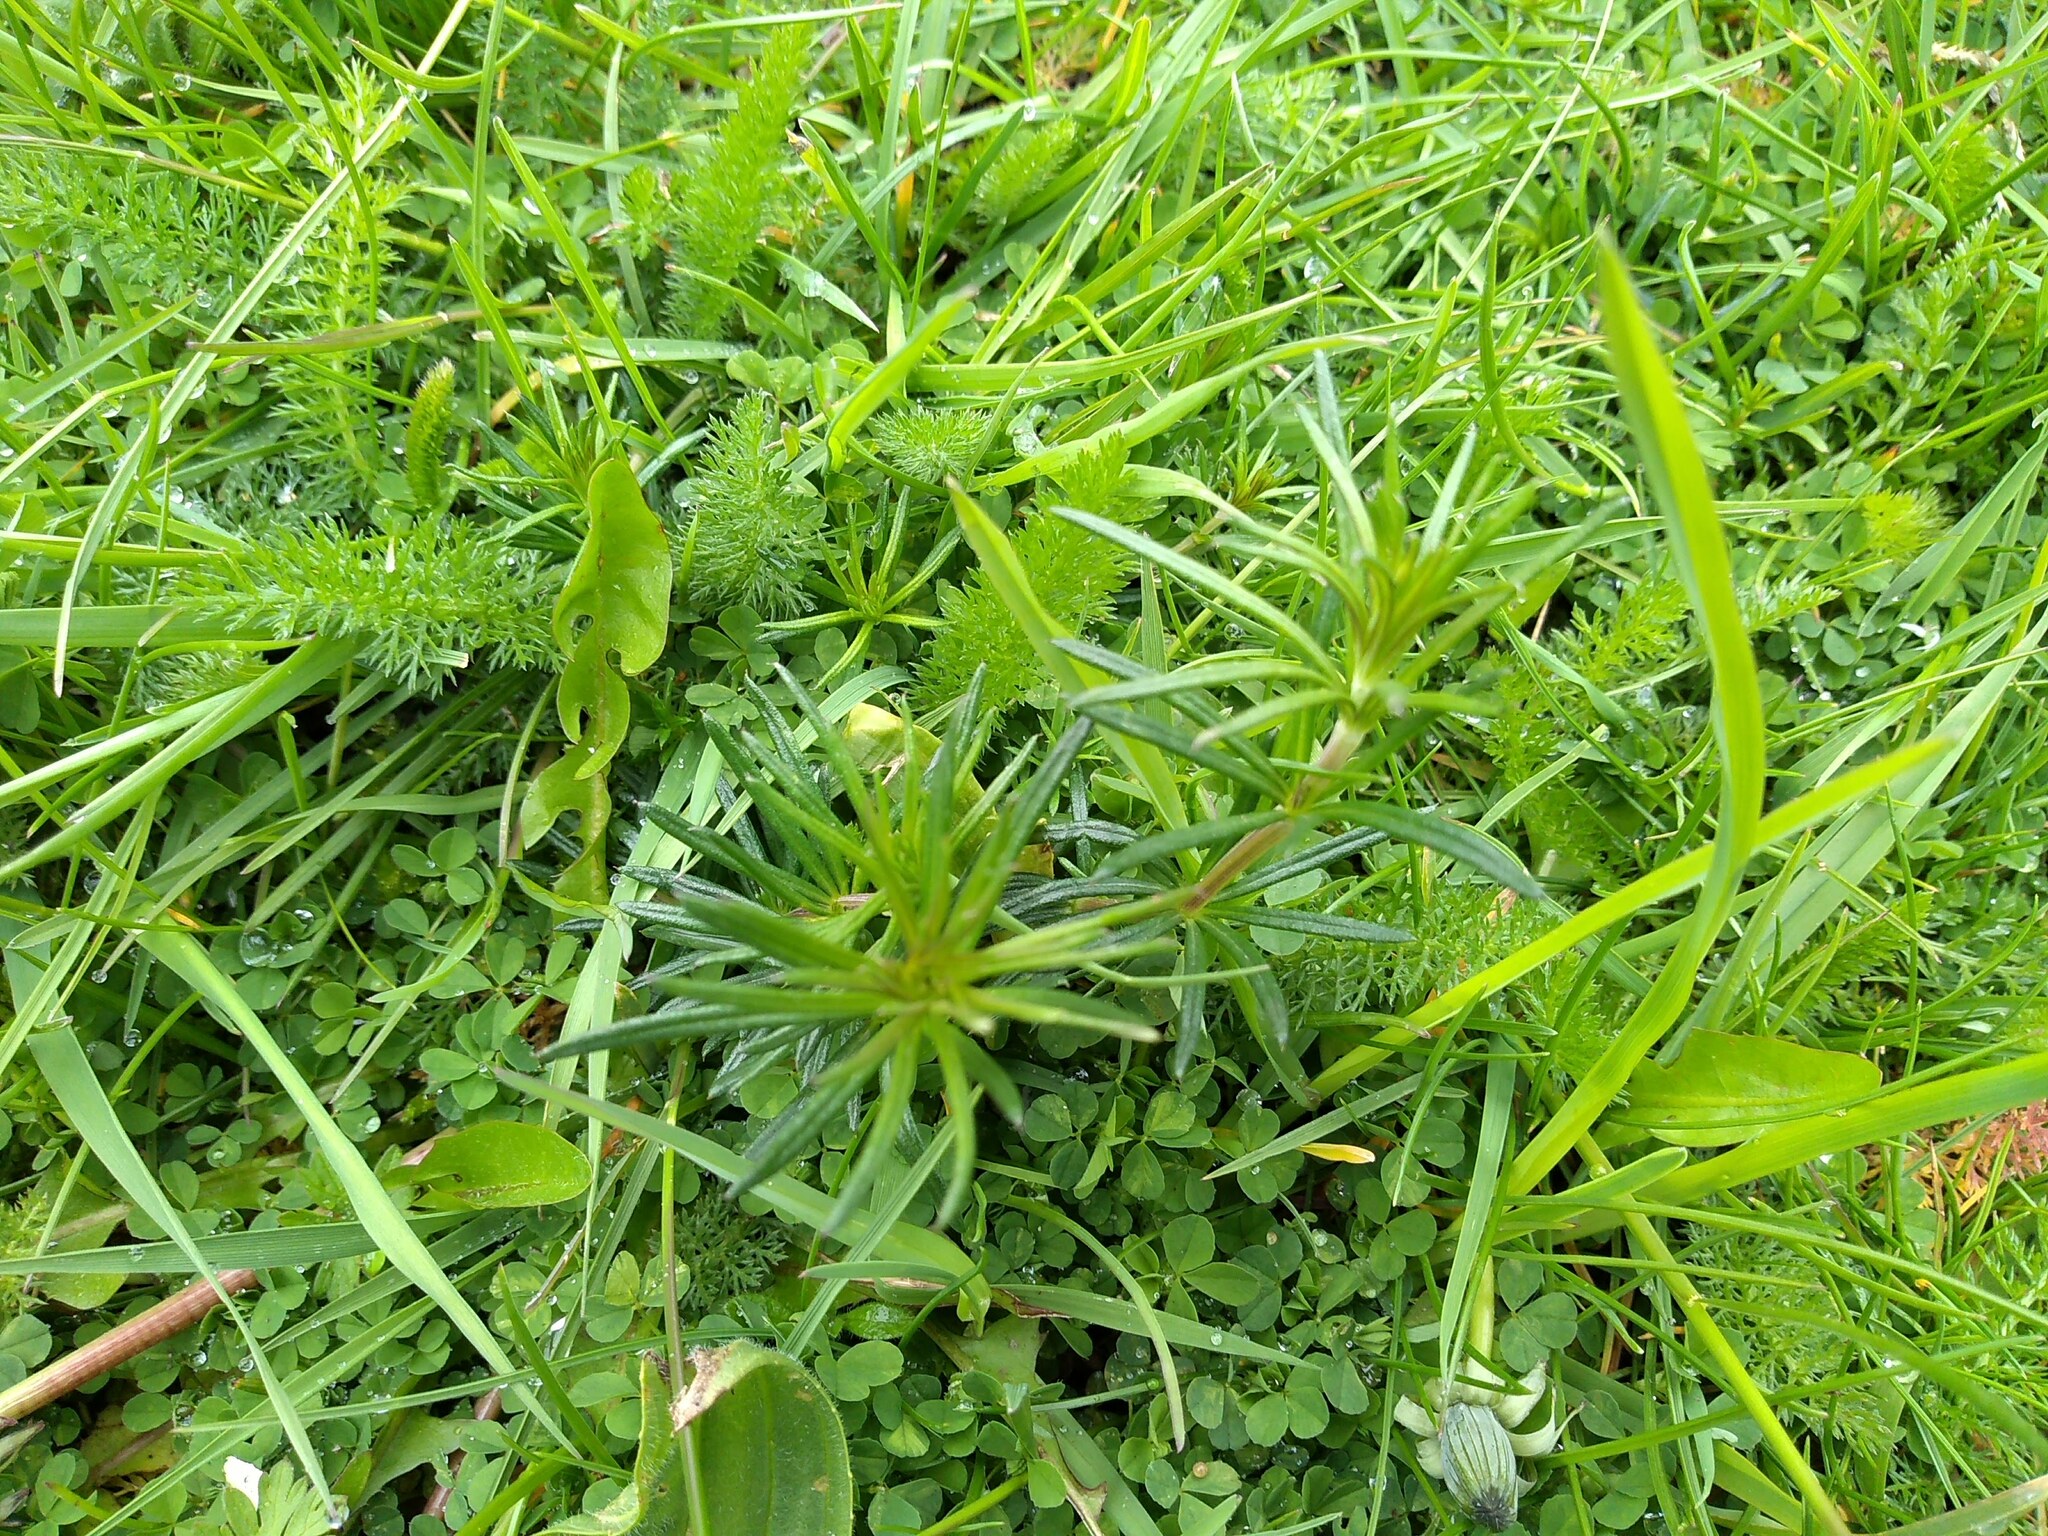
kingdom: Plantae
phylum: Tracheophyta
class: Magnoliopsida
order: Gentianales
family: Rubiaceae
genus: Galium
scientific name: Galium verum
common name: Lady's bedstraw
